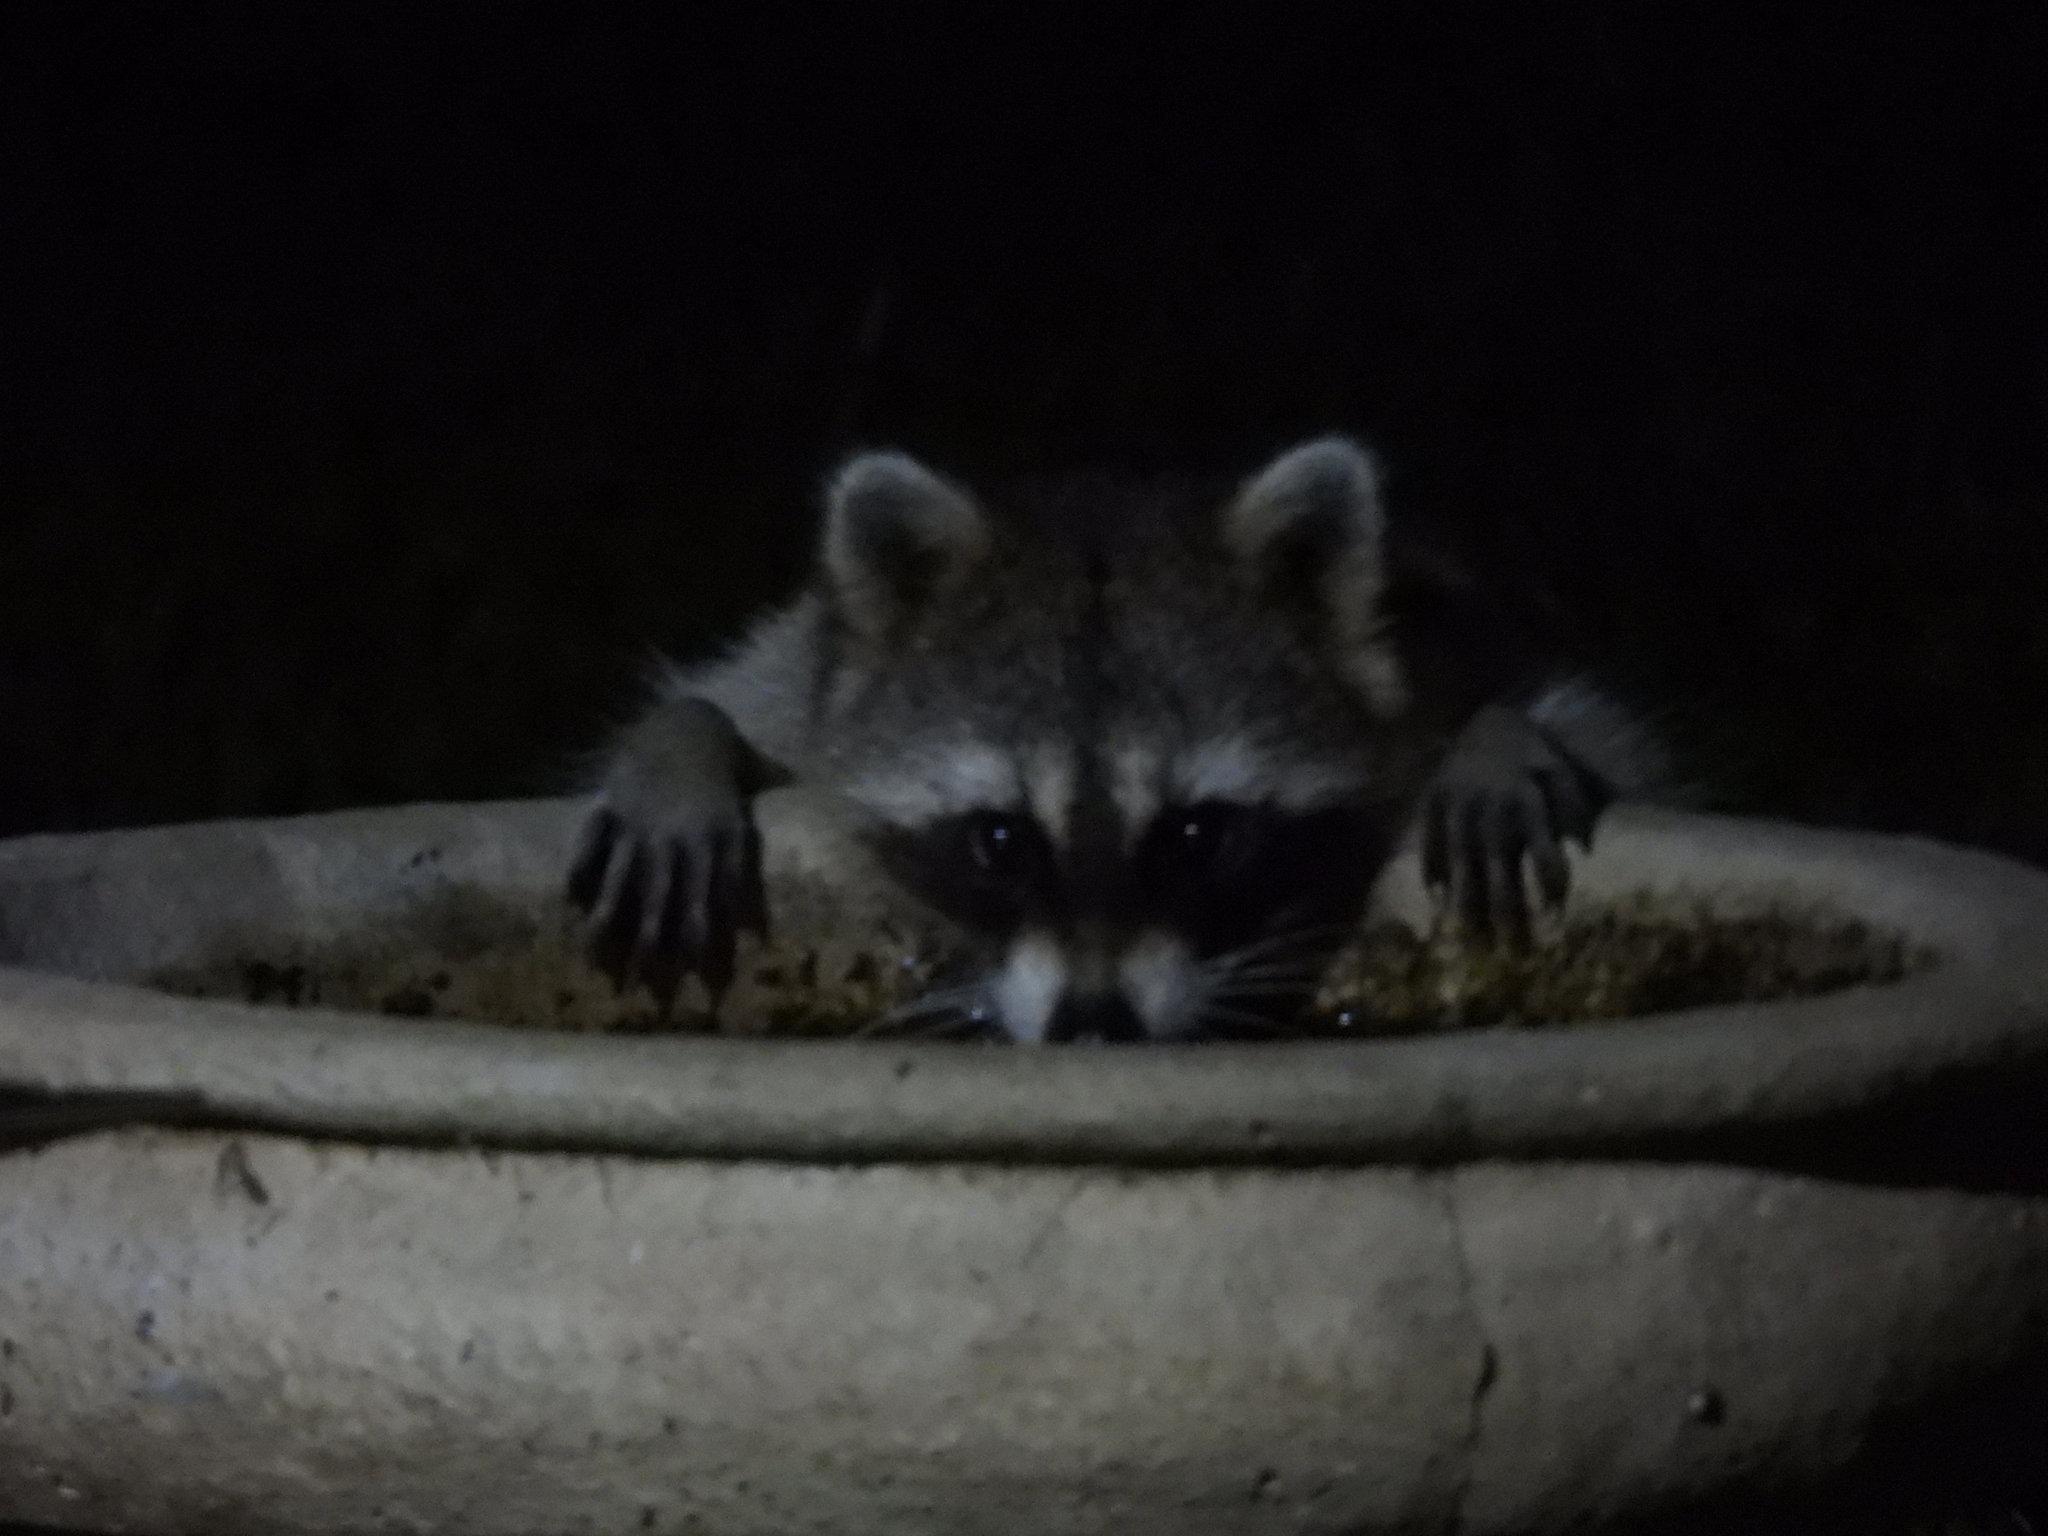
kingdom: Animalia
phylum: Chordata
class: Mammalia
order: Carnivora
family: Procyonidae
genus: Procyon
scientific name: Procyon lotor
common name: Raccoon
